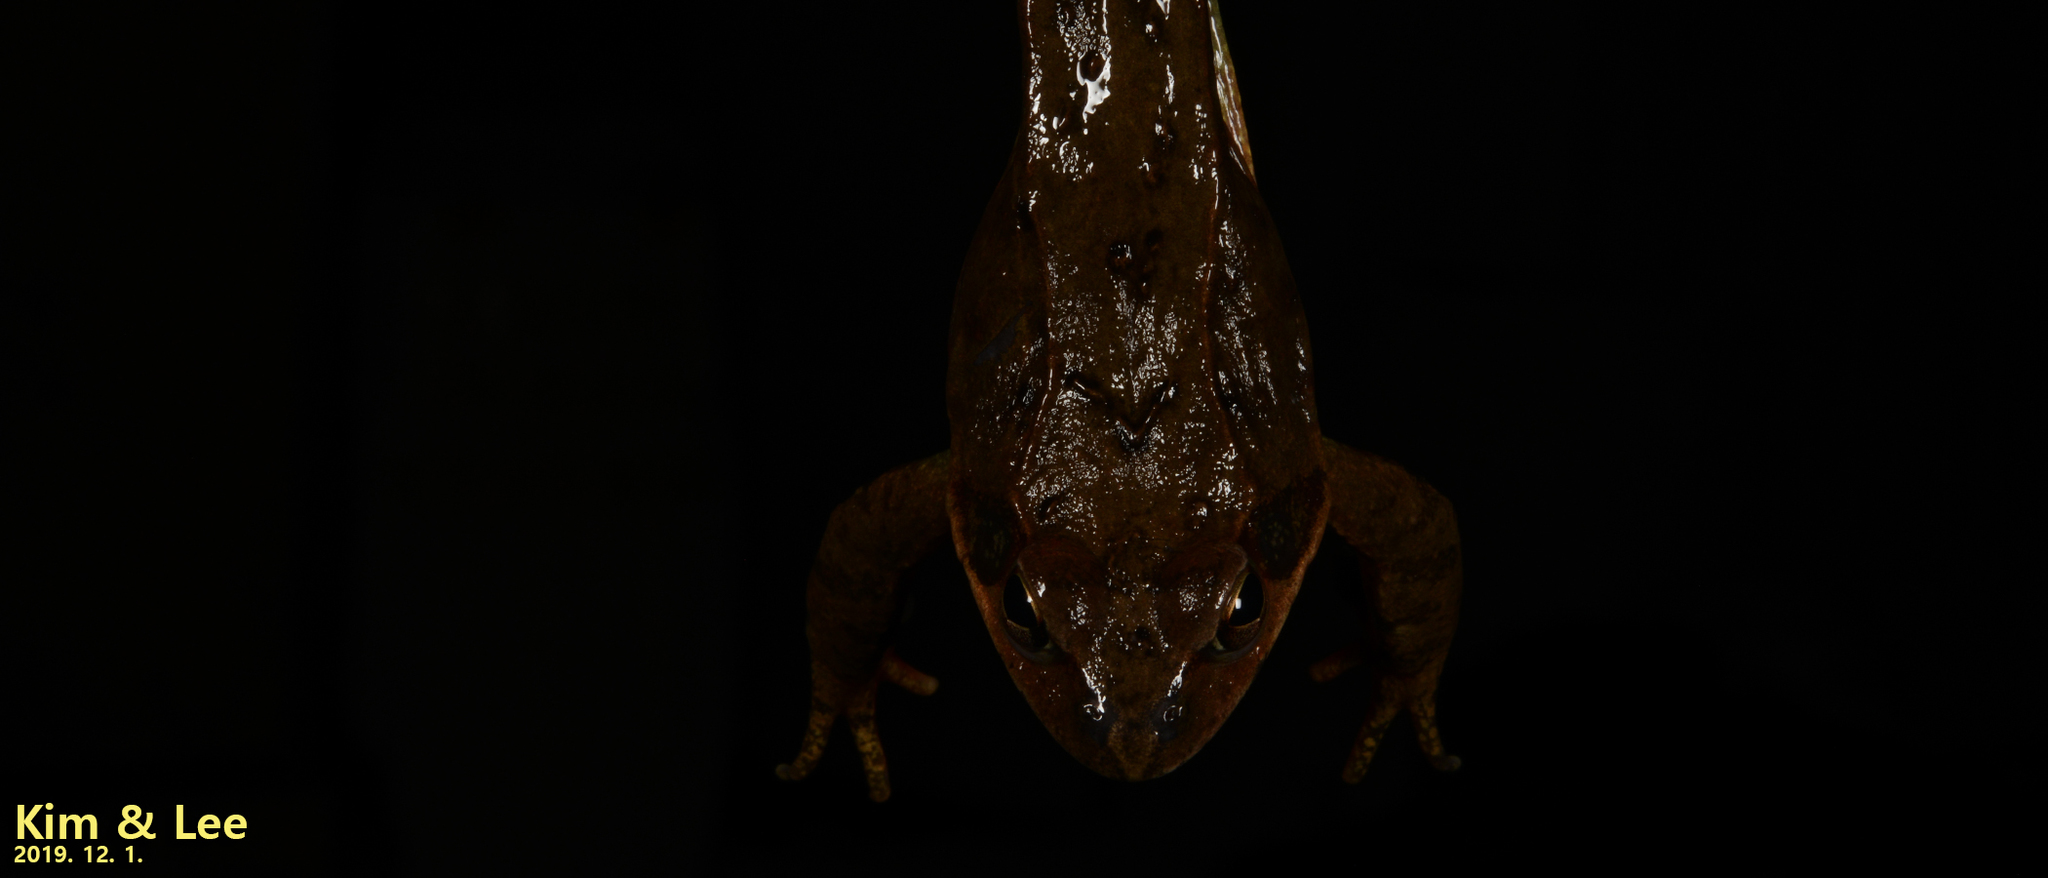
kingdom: Animalia
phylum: Chordata
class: Amphibia
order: Anura
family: Ranidae
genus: Rana
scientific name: Rana dybowskii
